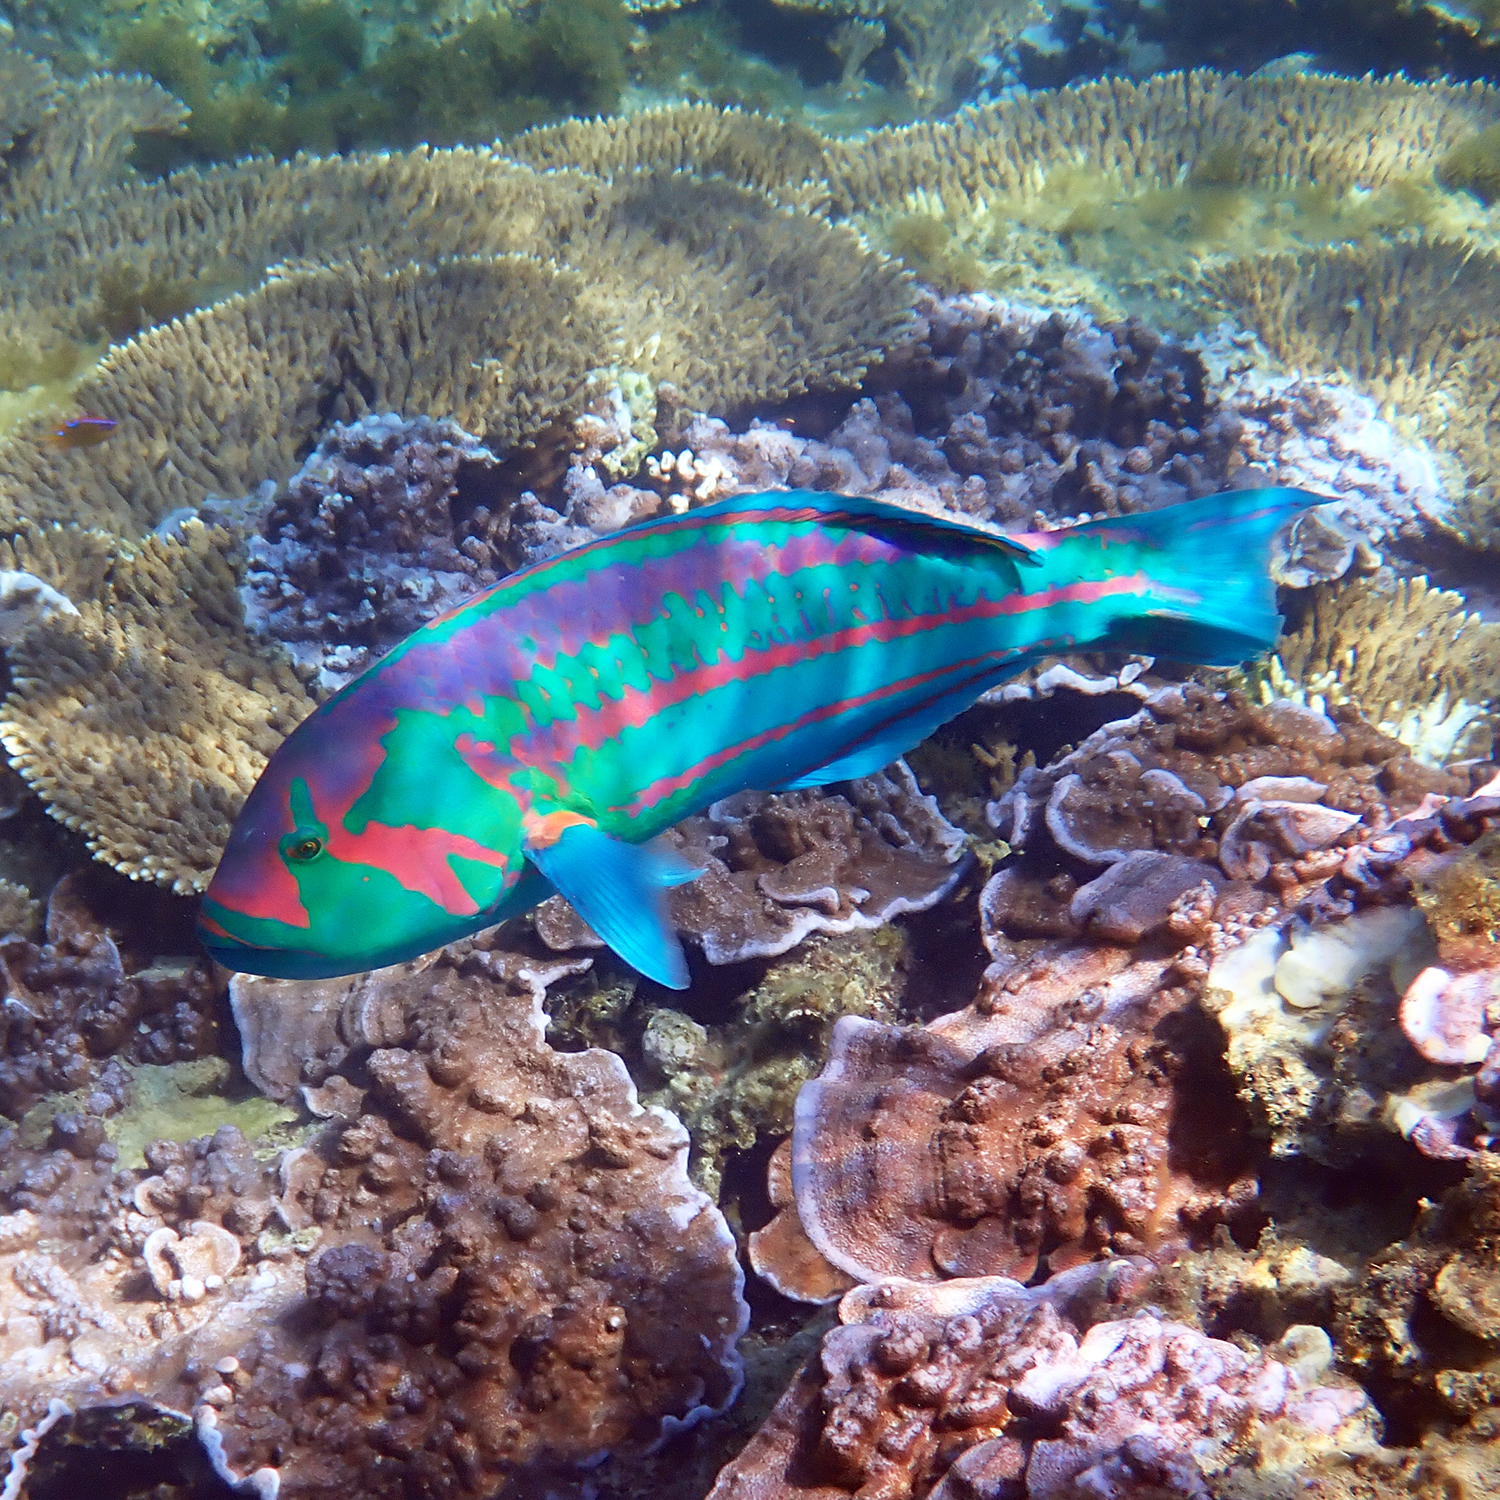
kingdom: Animalia
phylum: Chordata
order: Perciformes
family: Labridae
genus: Thalassoma
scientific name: Thalassoma purpureum
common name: Parrotfish
